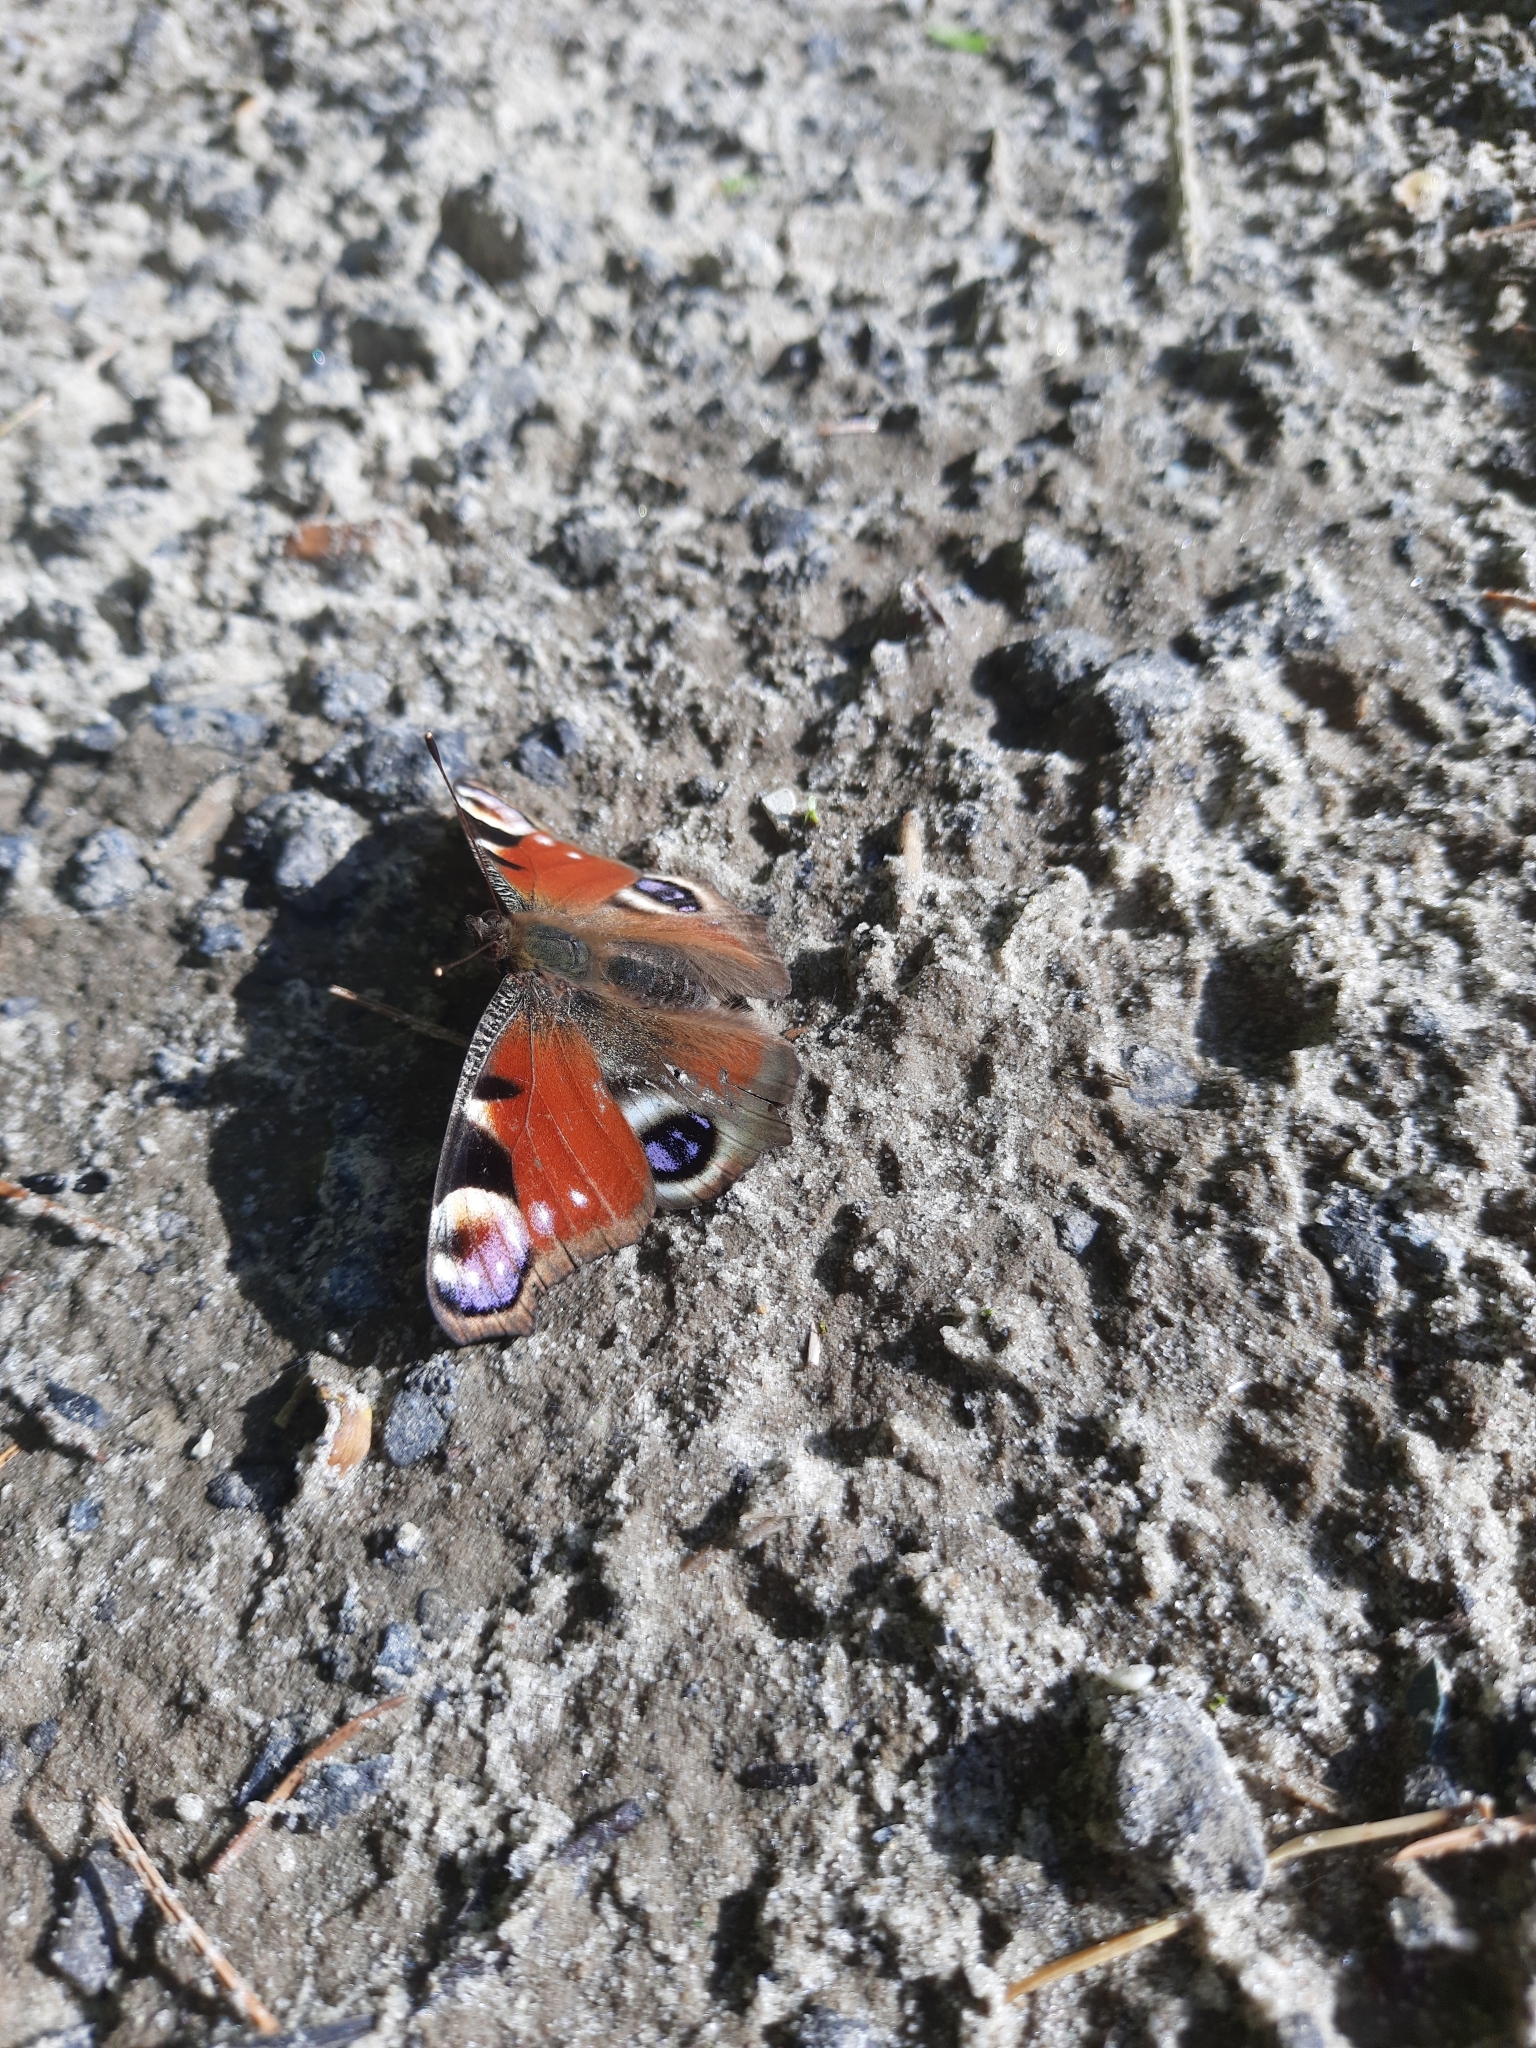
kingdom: Animalia
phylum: Arthropoda
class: Insecta
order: Lepidoptera
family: Nymphalidae
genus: Aglais
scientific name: Aglais io
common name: Peacock
